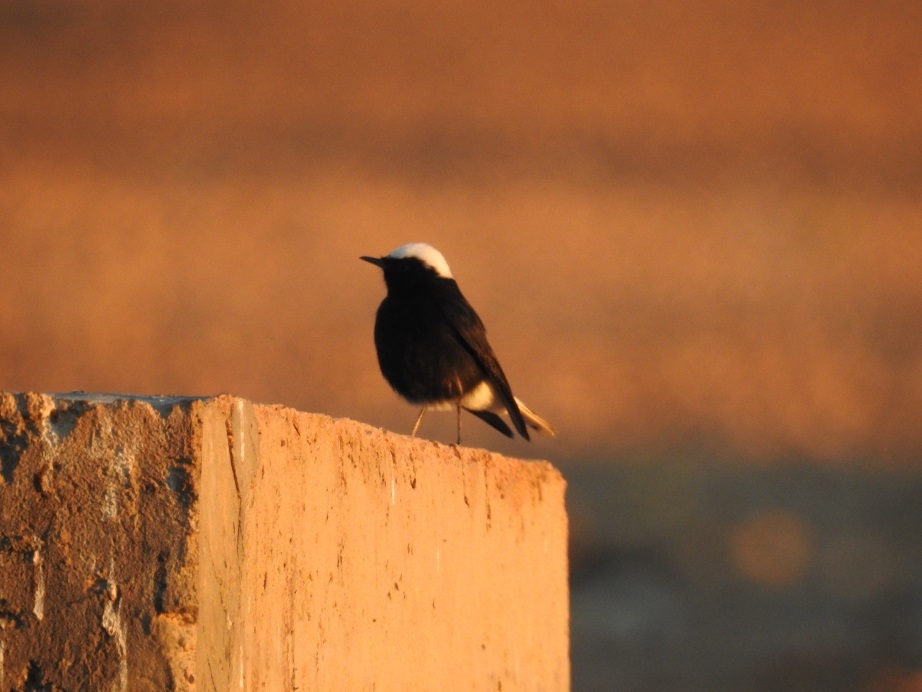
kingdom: Animalia
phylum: Chordata
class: Aves
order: Passeriformes
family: Muscicapidae
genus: Oenanthe
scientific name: Oenanthe leucopyga
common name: White-crowned wheatear
